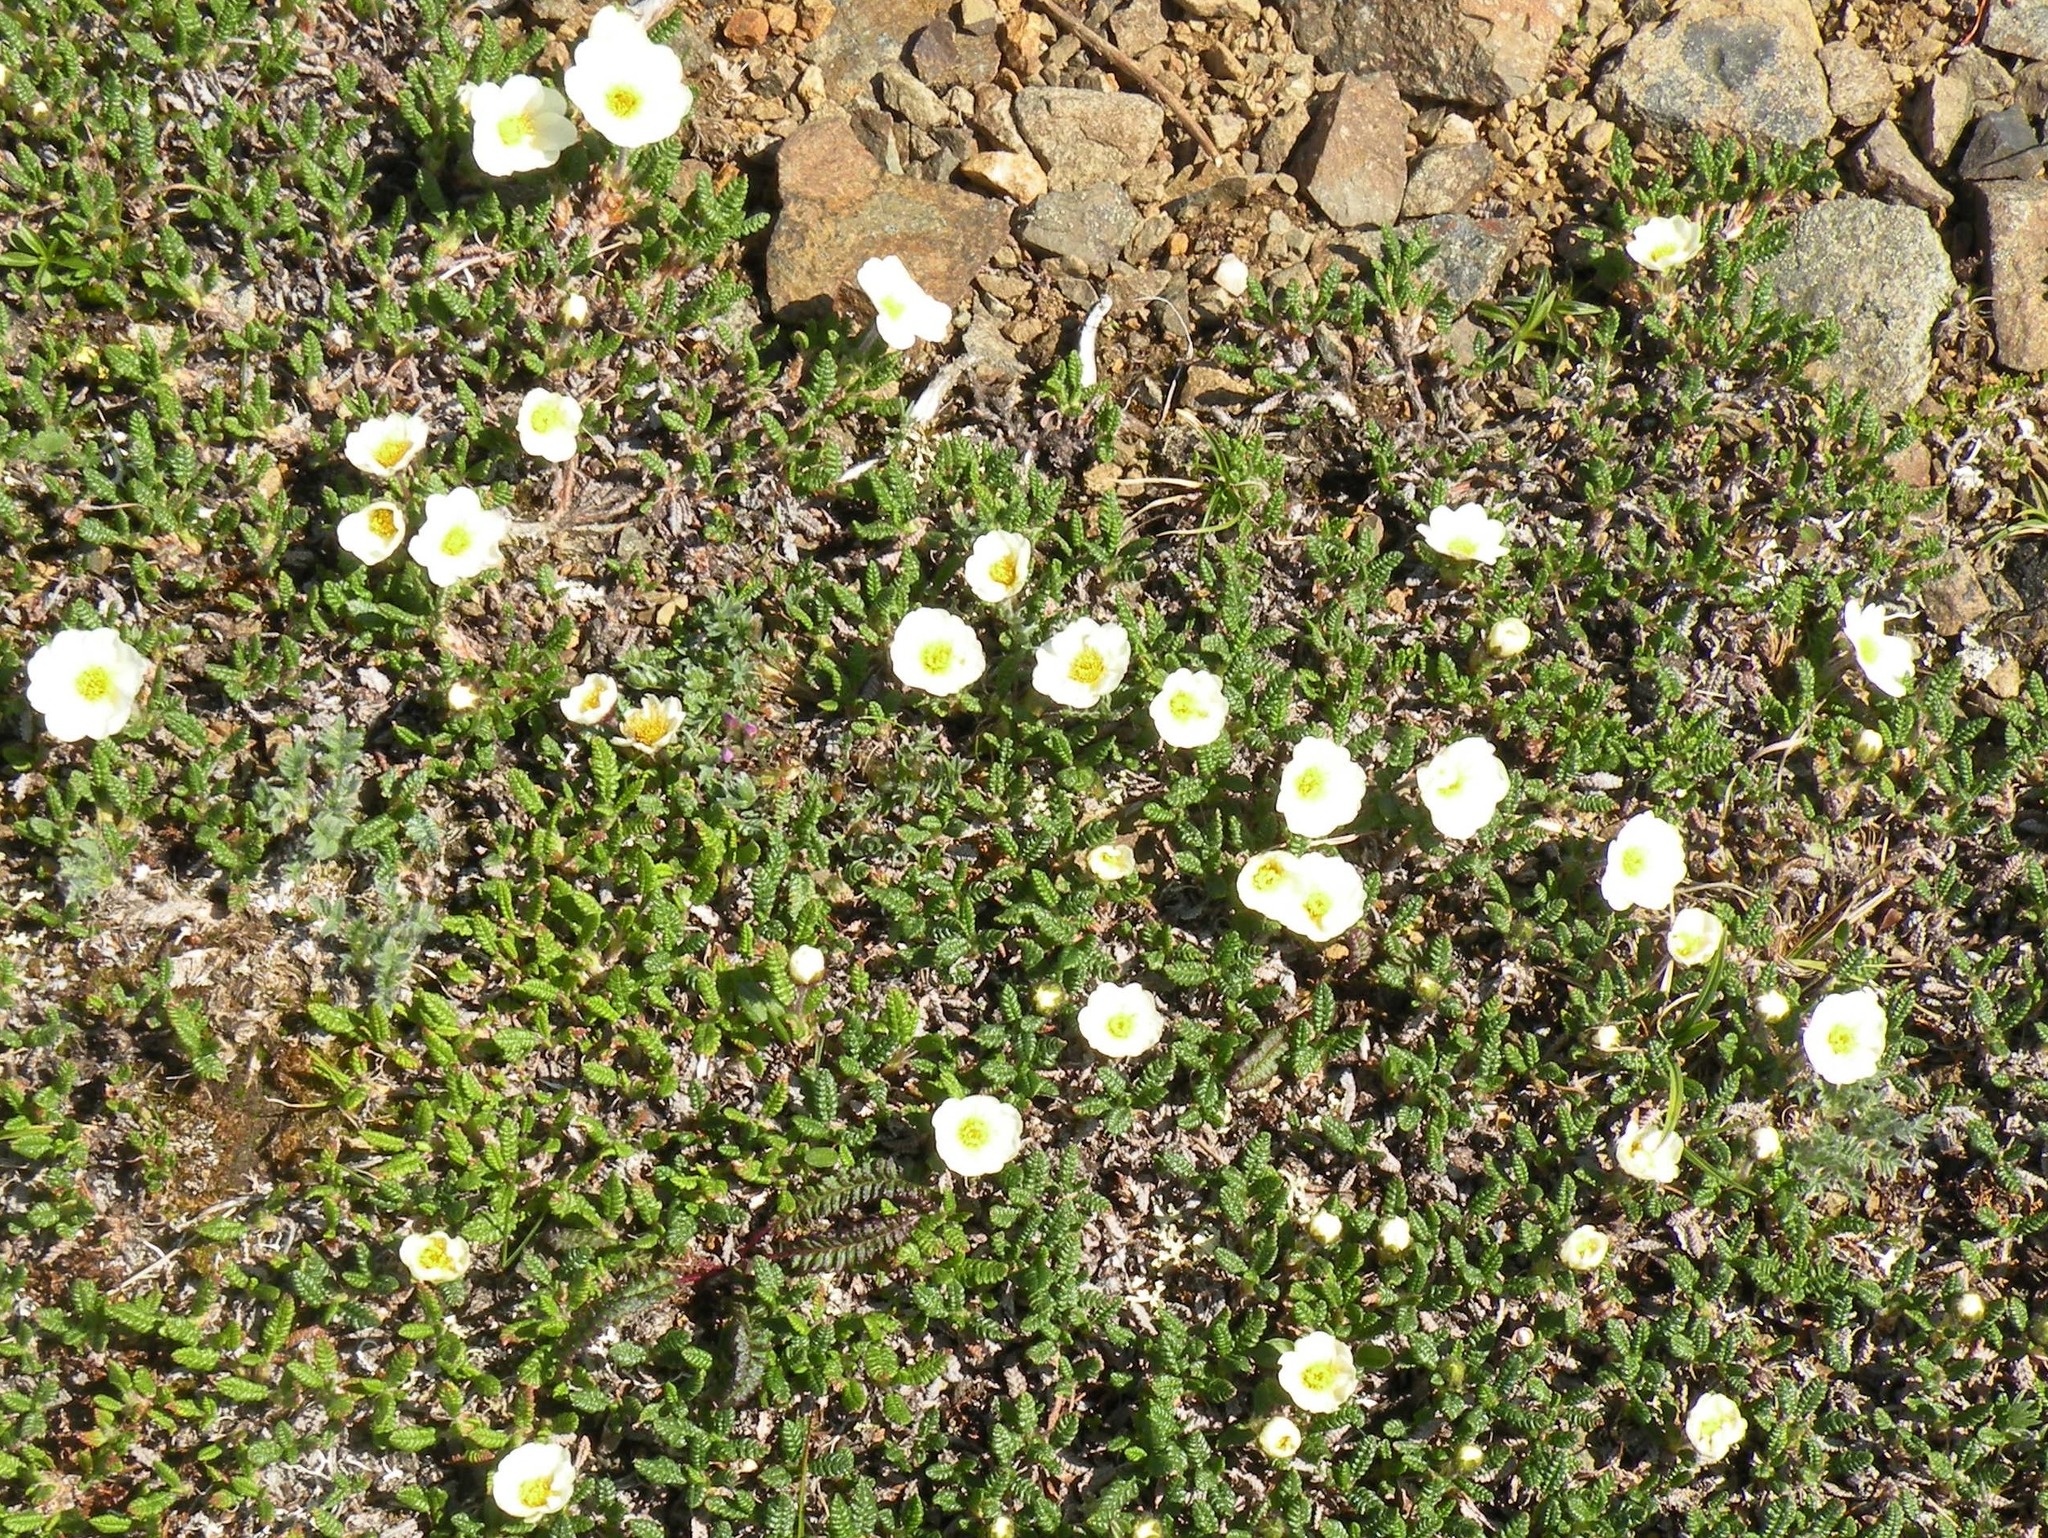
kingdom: Plantae
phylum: Tracheophyta
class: Magnoliopsida
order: Rosales
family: Rosaceae
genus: Dryas
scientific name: Dryas octopetala
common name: Eight-petal mountain-avens
